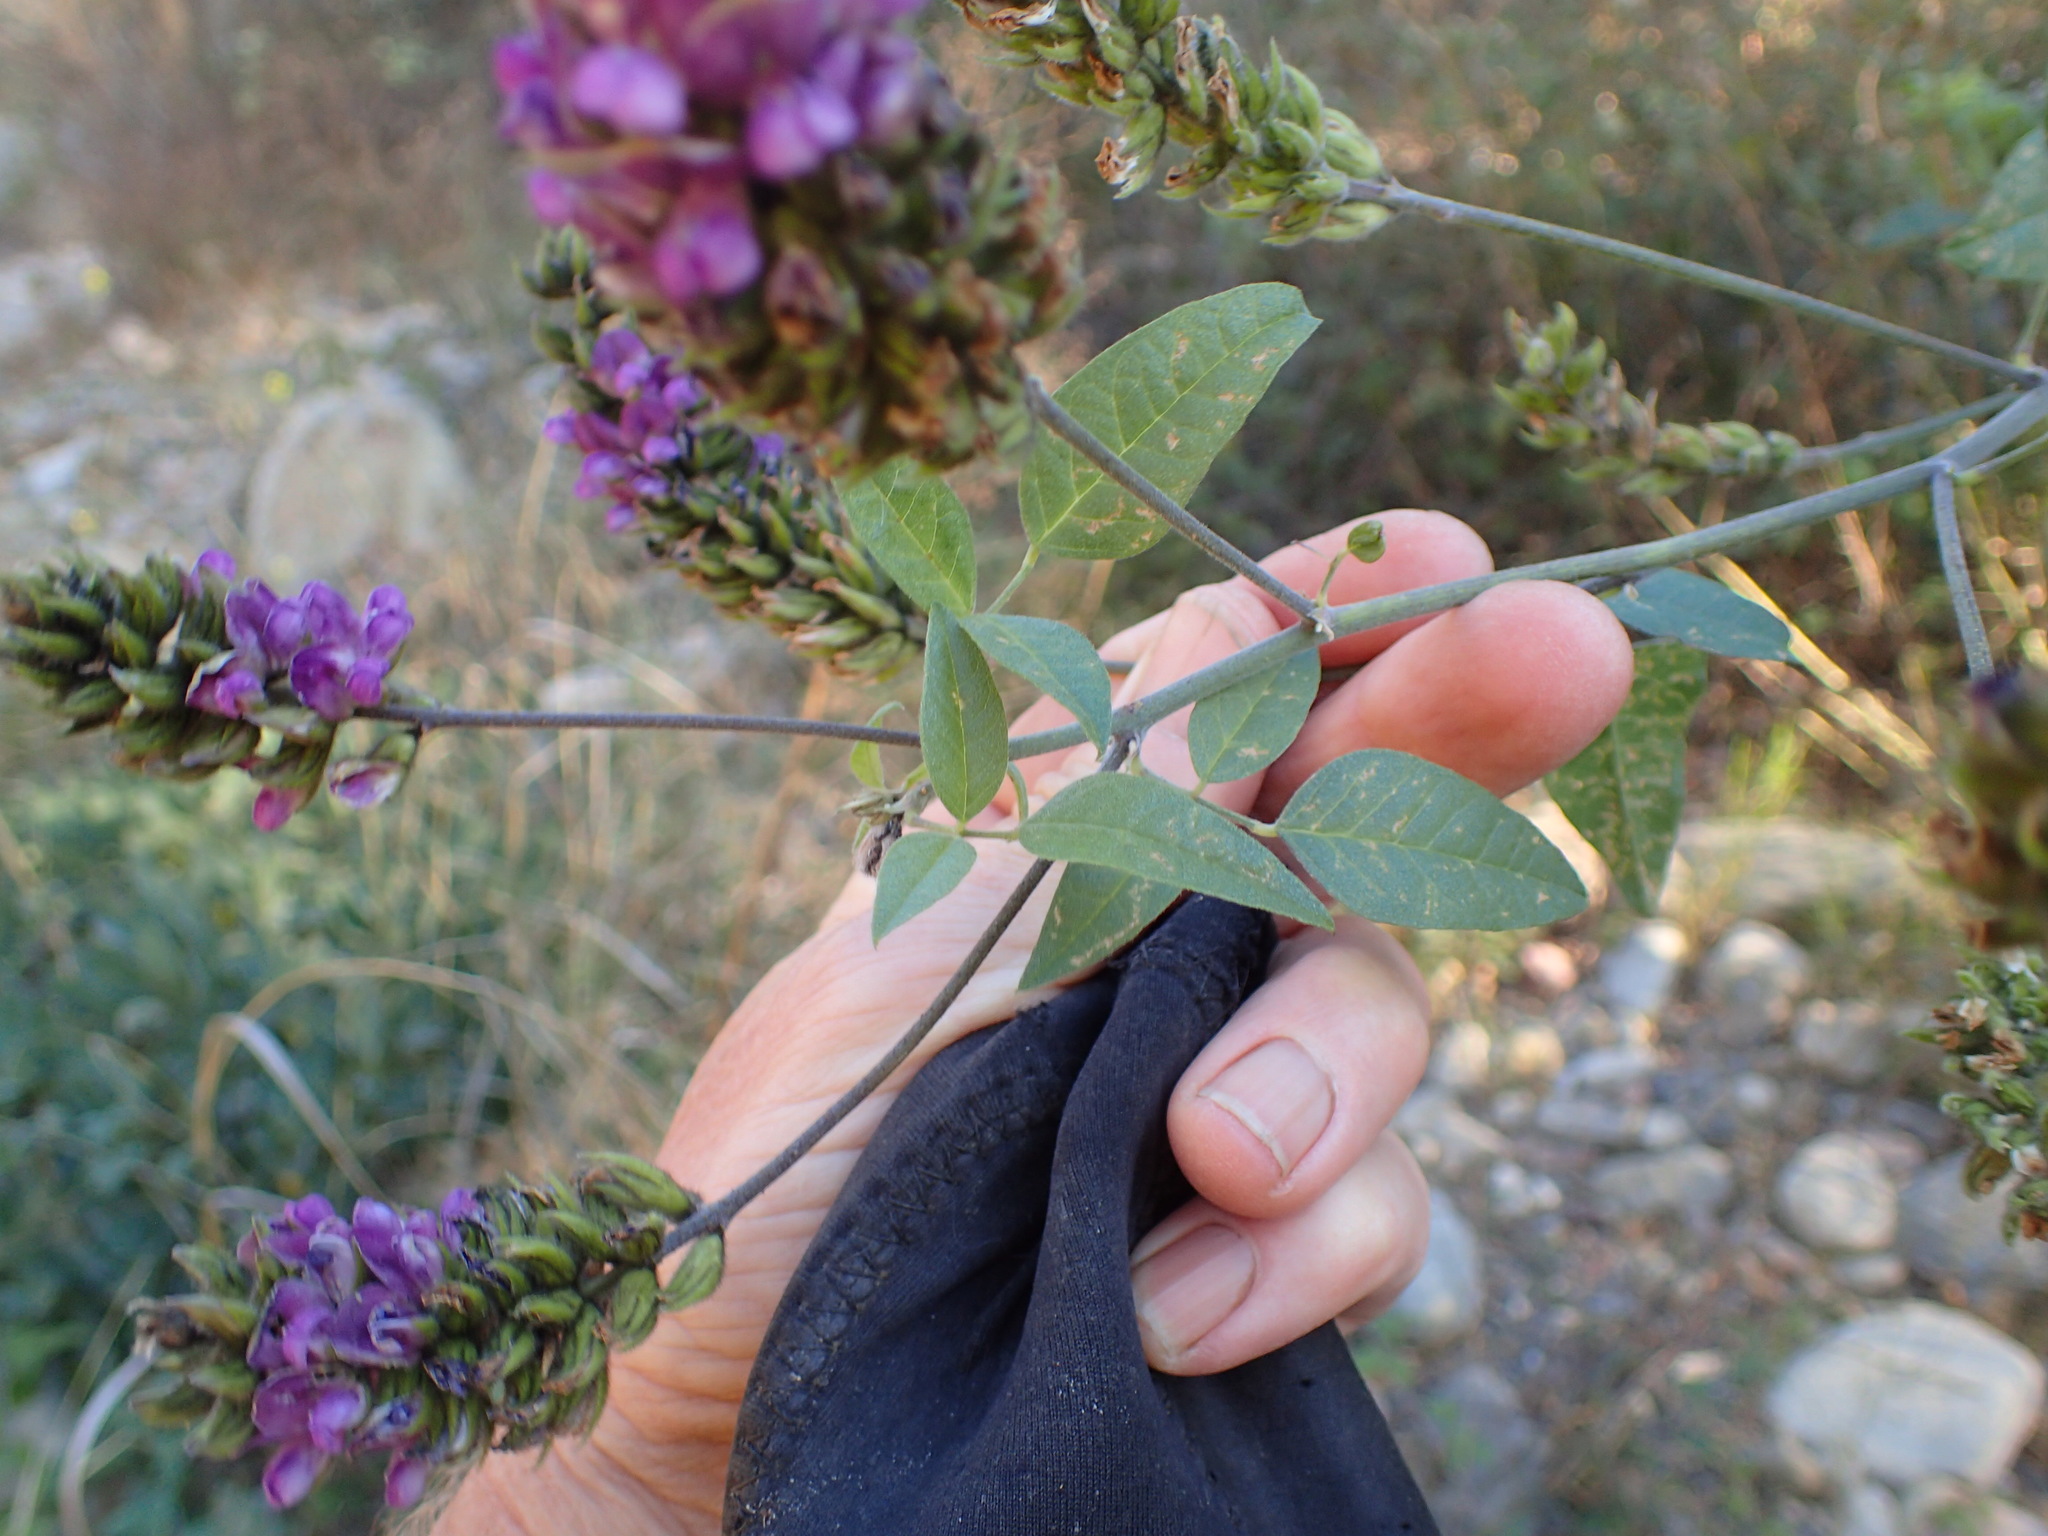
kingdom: Plantae
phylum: Tracheophyta
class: Magnoliopsida
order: Fabales
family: Fabaceae
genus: Hoita
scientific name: Hoita macrostachya
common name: Leatherroot
